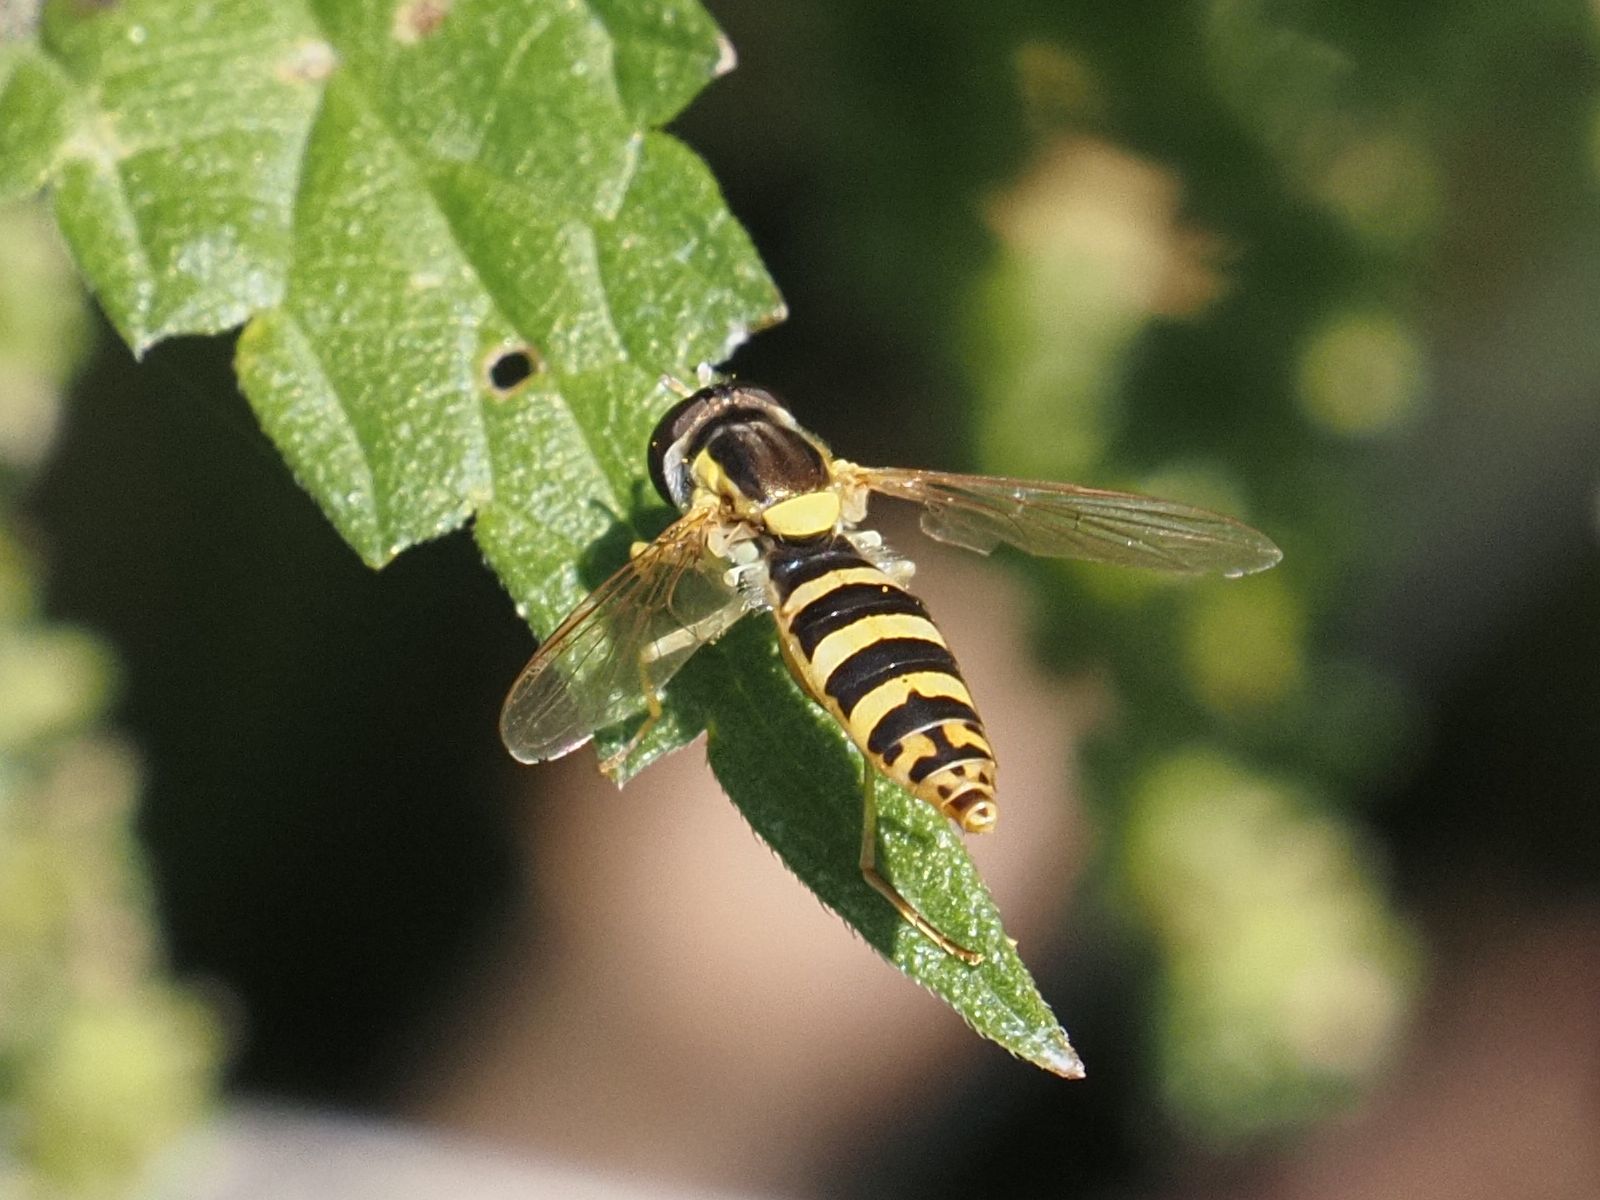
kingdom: Animalia
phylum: Arthropoda
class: Insecta
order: Diptera
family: Syrphidae
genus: Sphaerophoria
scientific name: Sphaerophoria
